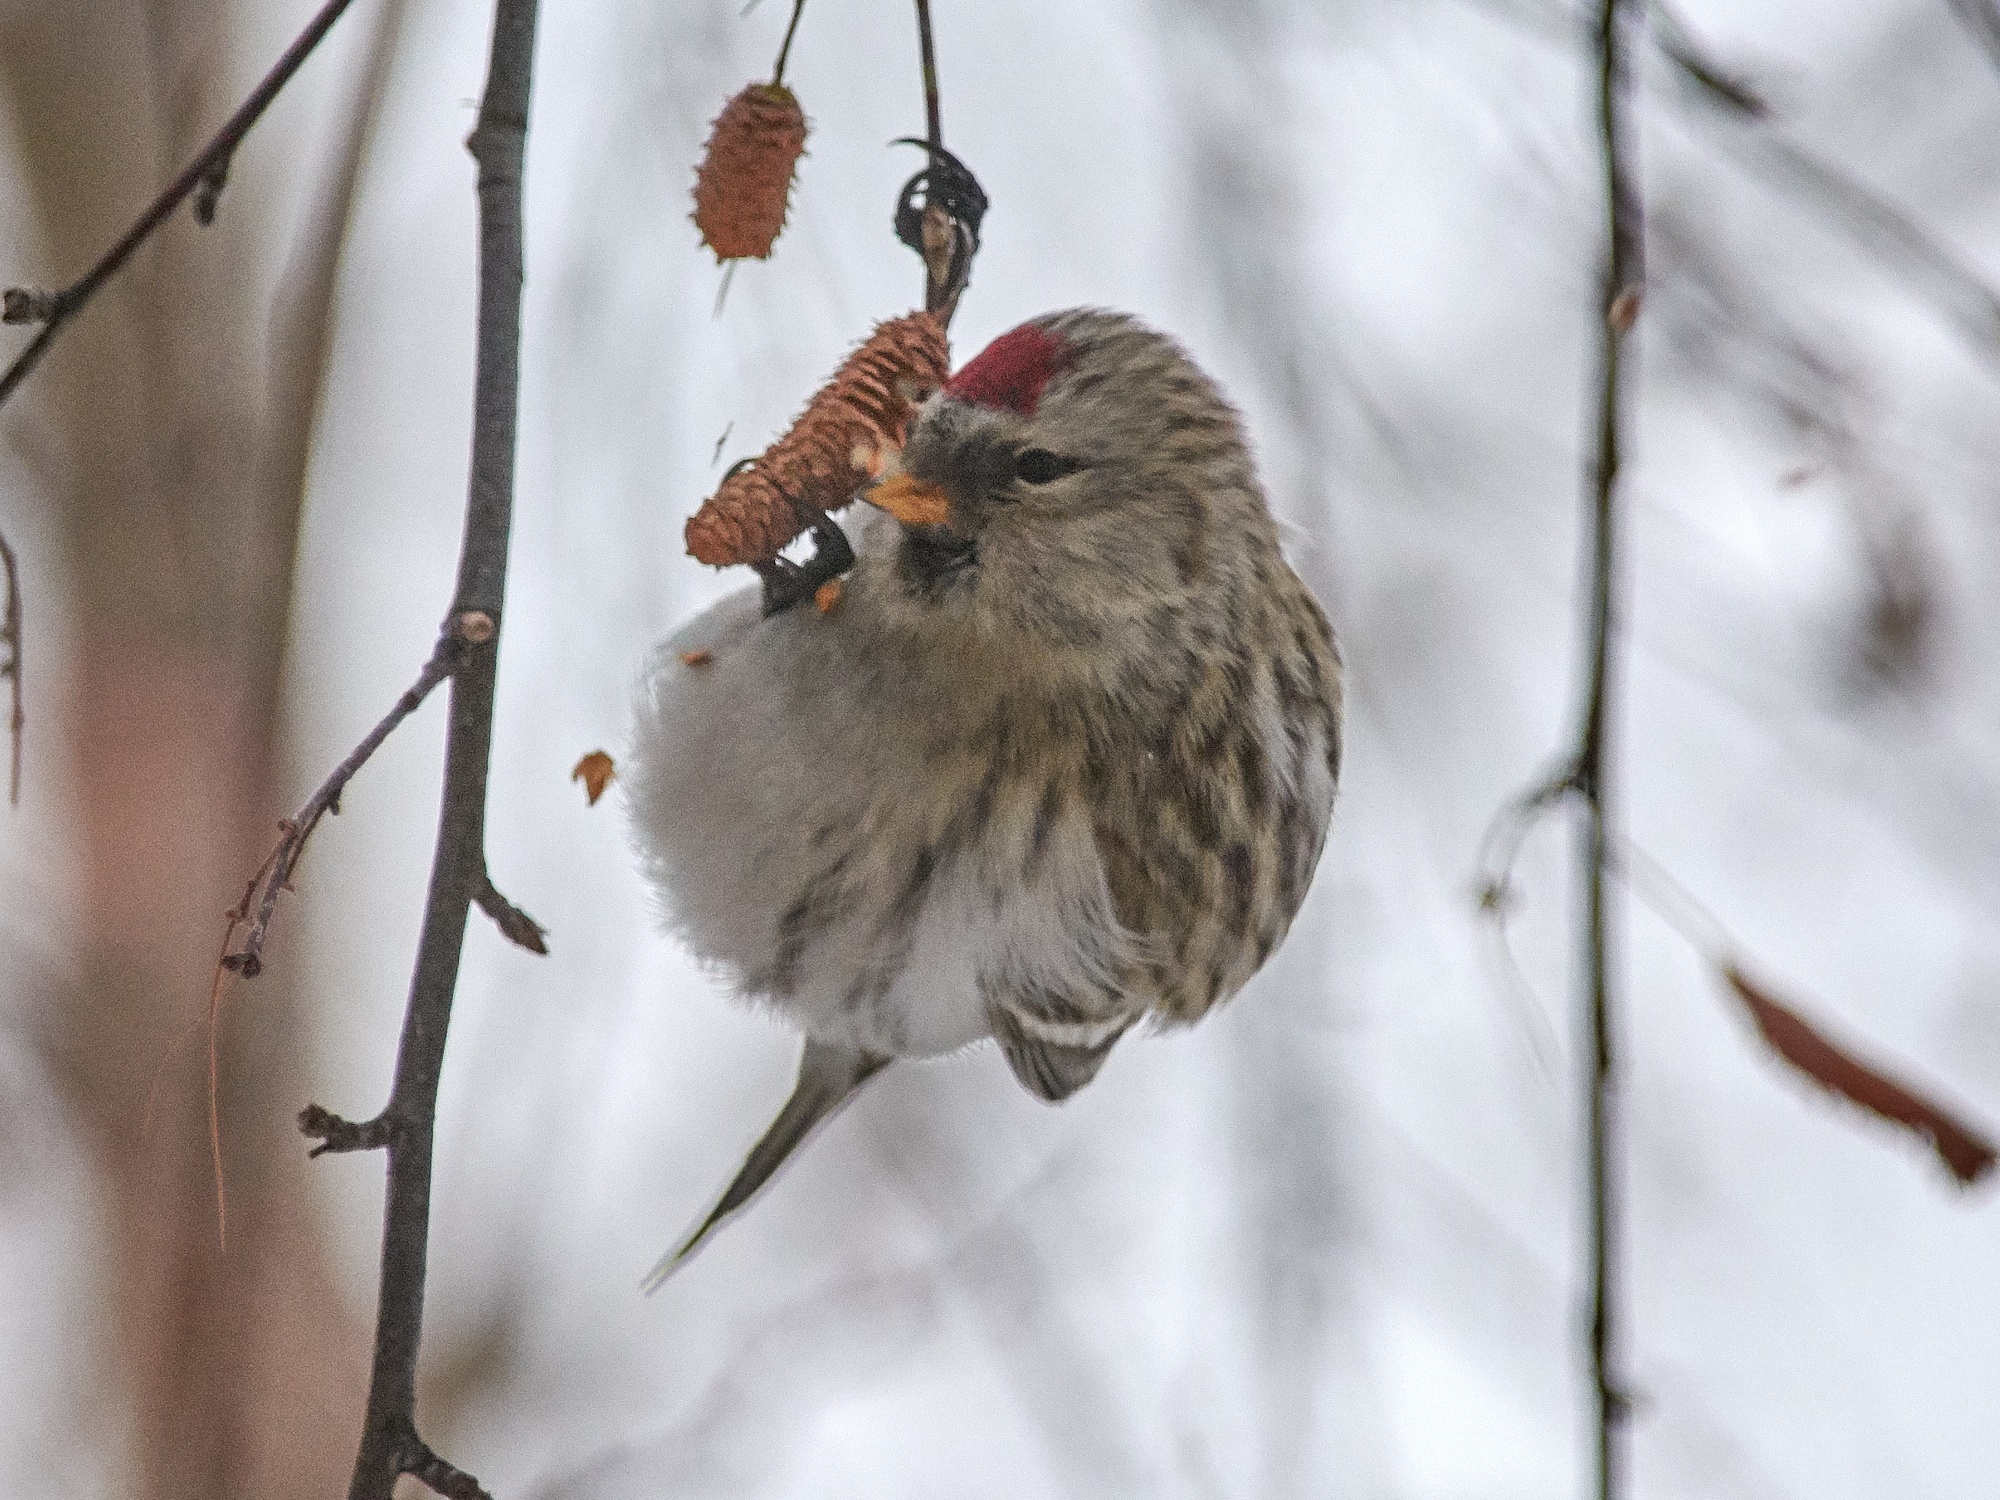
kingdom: Animalia
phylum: Chordata
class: Aves
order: Passeriformes
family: Fringillidae
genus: Acanthis
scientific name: Acanthis flammea
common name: Common redpoll
